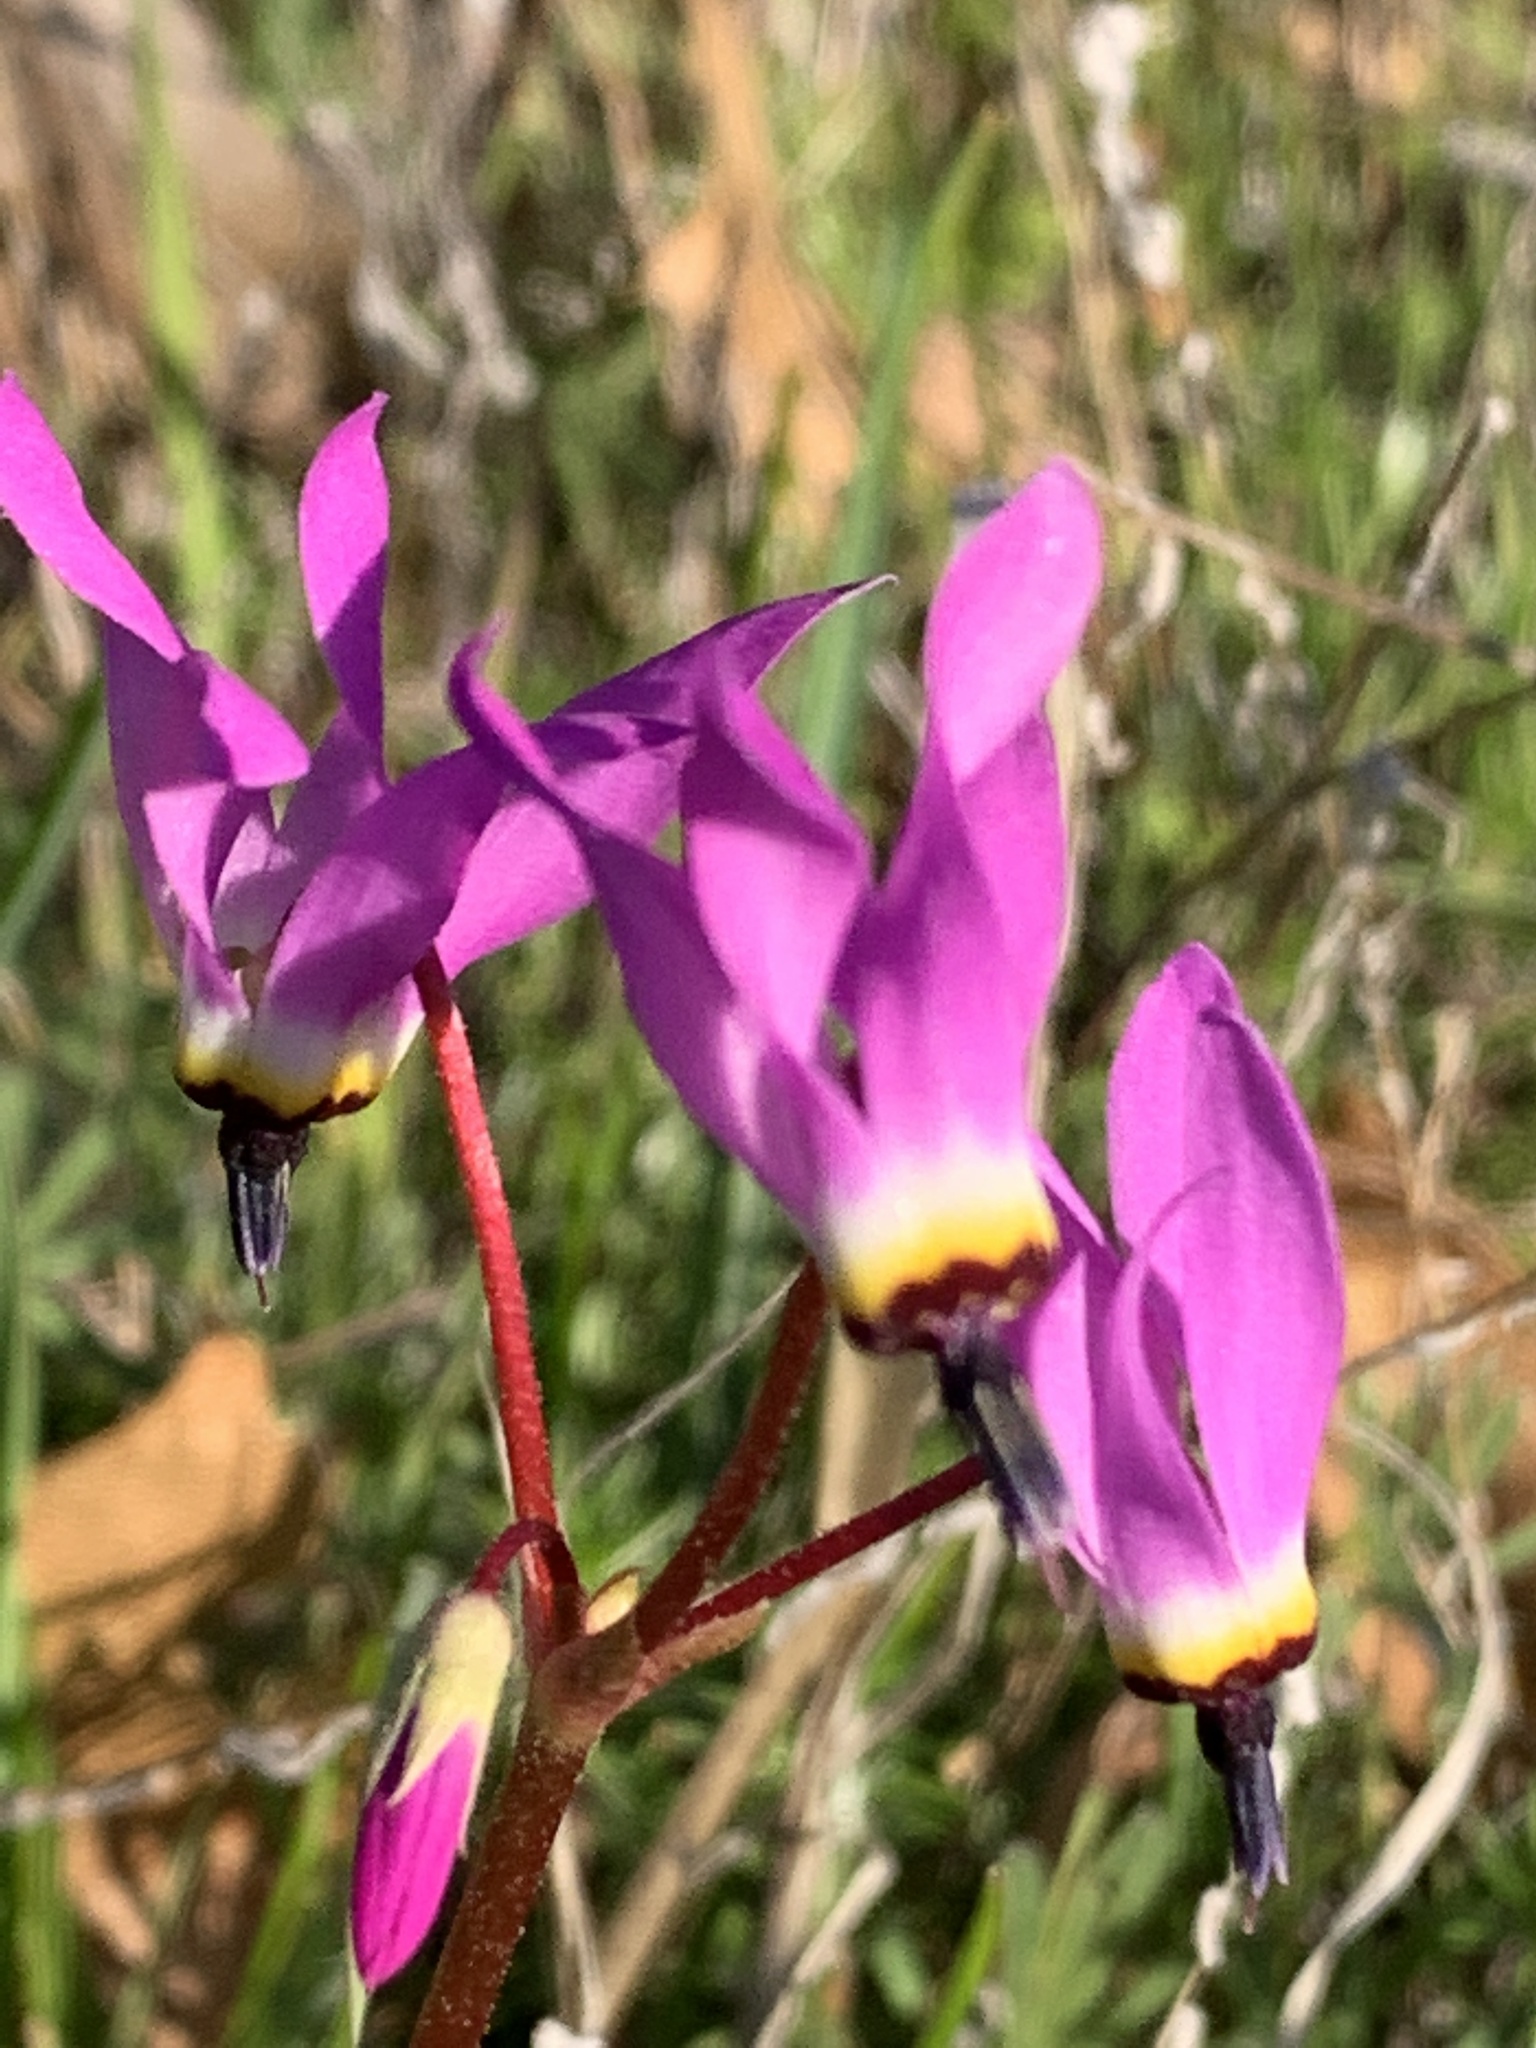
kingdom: Plantae
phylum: Tracheophyta
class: Magnoliopsida
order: Ericales
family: Primulaceae
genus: Dodecatheon
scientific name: Dodecatheon hendersonii
